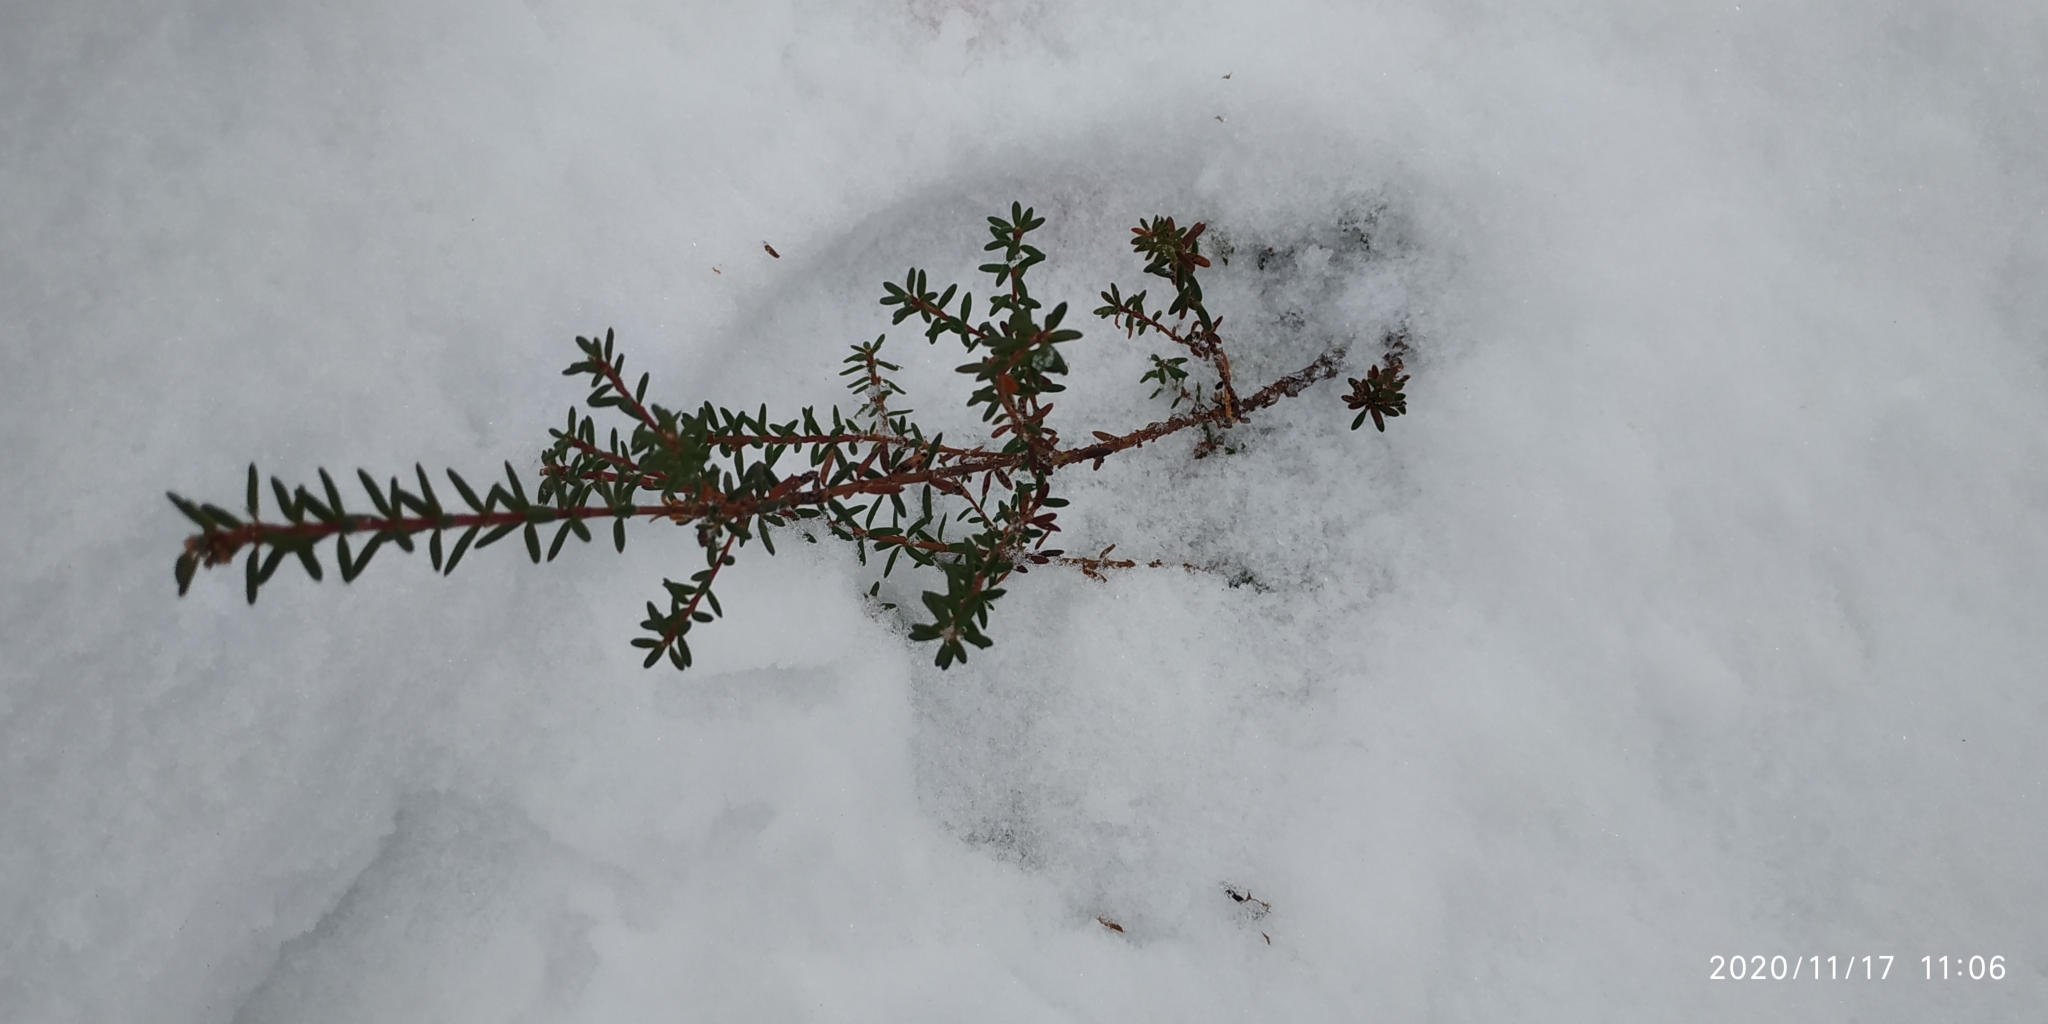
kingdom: Plantae
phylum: Tracheophyta
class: Magnoliopsida
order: Ericales
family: Ericaceae
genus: Empetrum
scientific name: Empetrum nigrum
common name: Black crowberry
